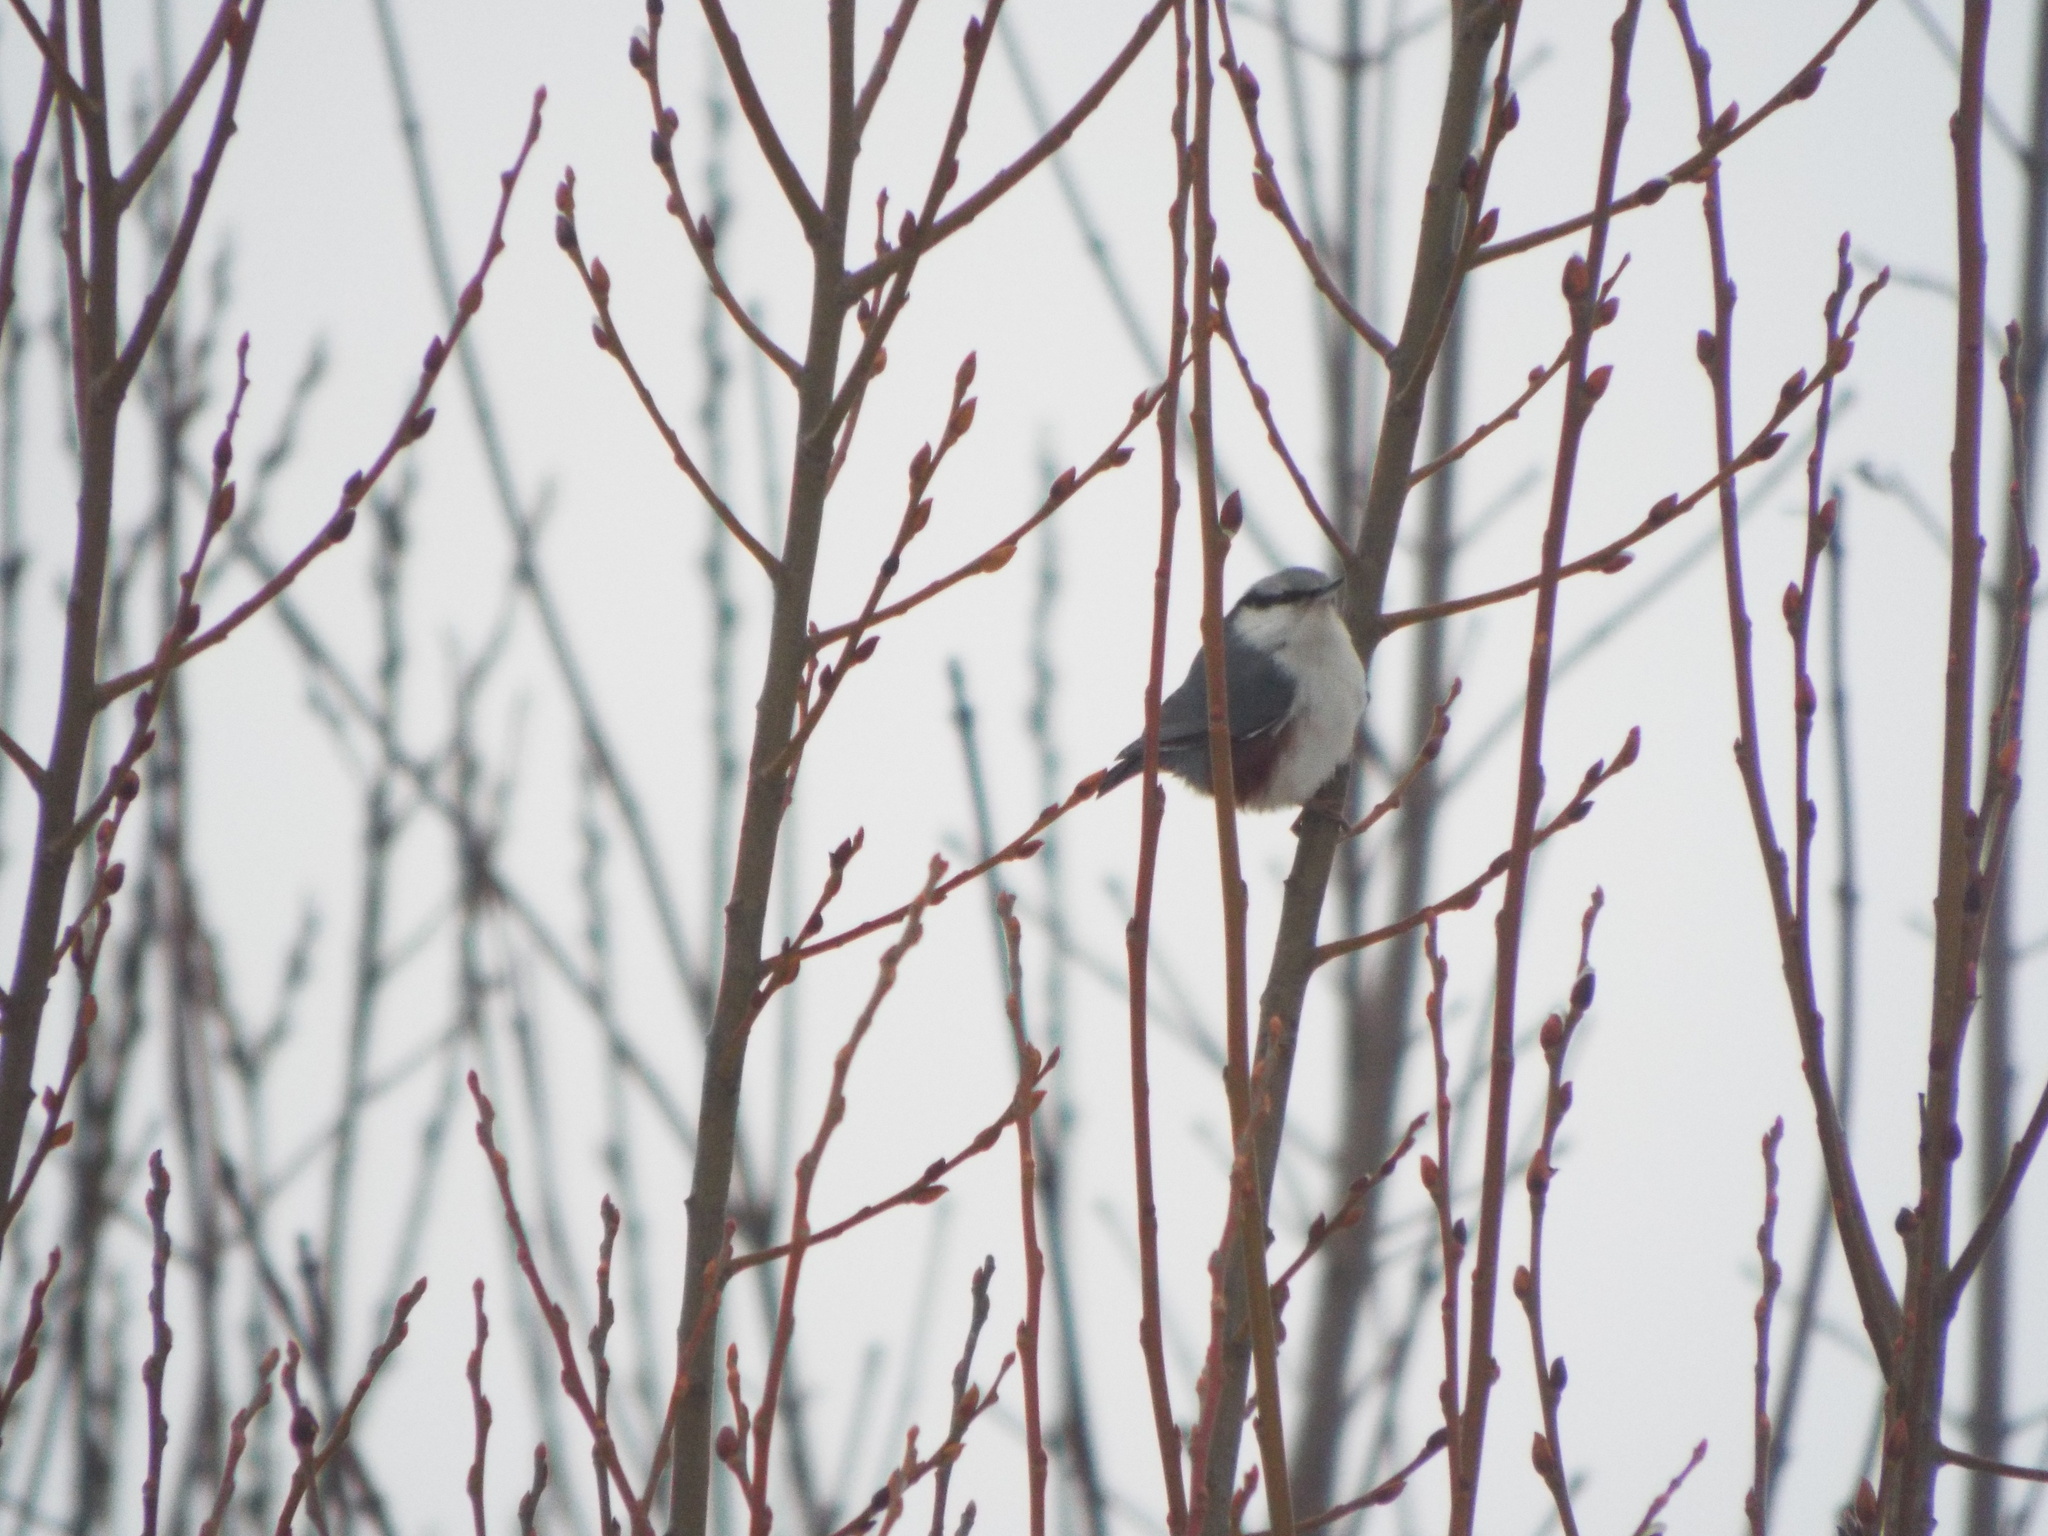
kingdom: Animalia
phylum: Chordata
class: Aves
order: Passeriformes
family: Sittidae
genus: Sitta
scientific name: Sitta europaea
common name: Eurasian nuthatch
